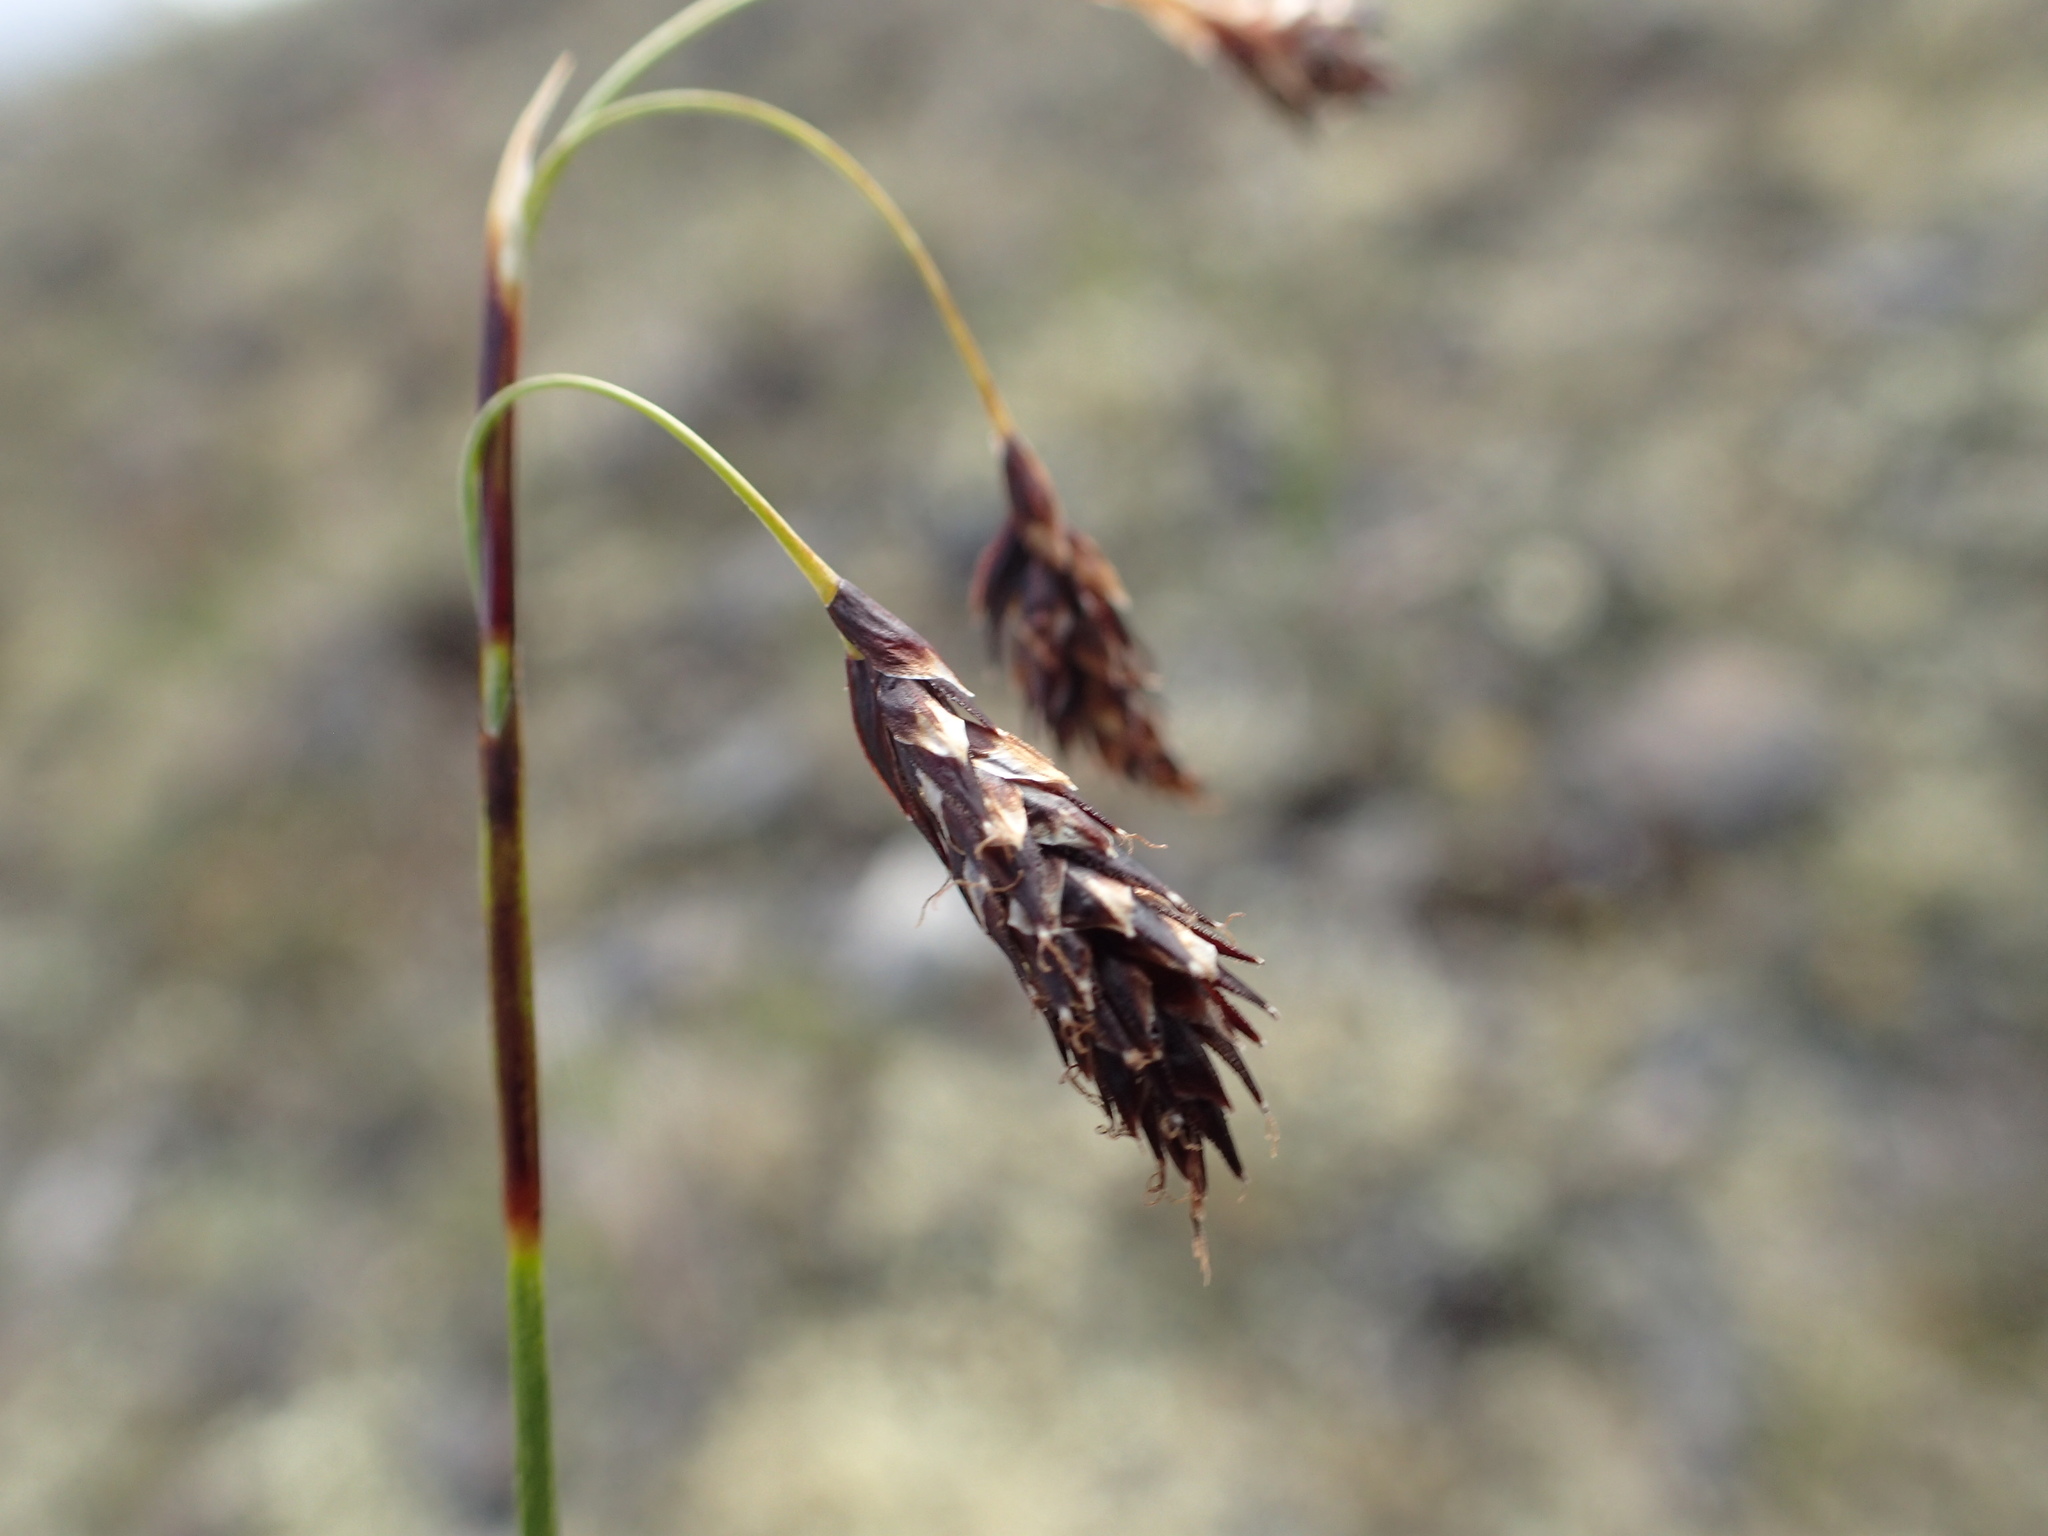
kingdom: Plantae
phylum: Tracheophyta
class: Liliopsida
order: Poales
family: Cyperaceae
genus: Carex
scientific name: Carex fuliginosa
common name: Few-flowered sedge
